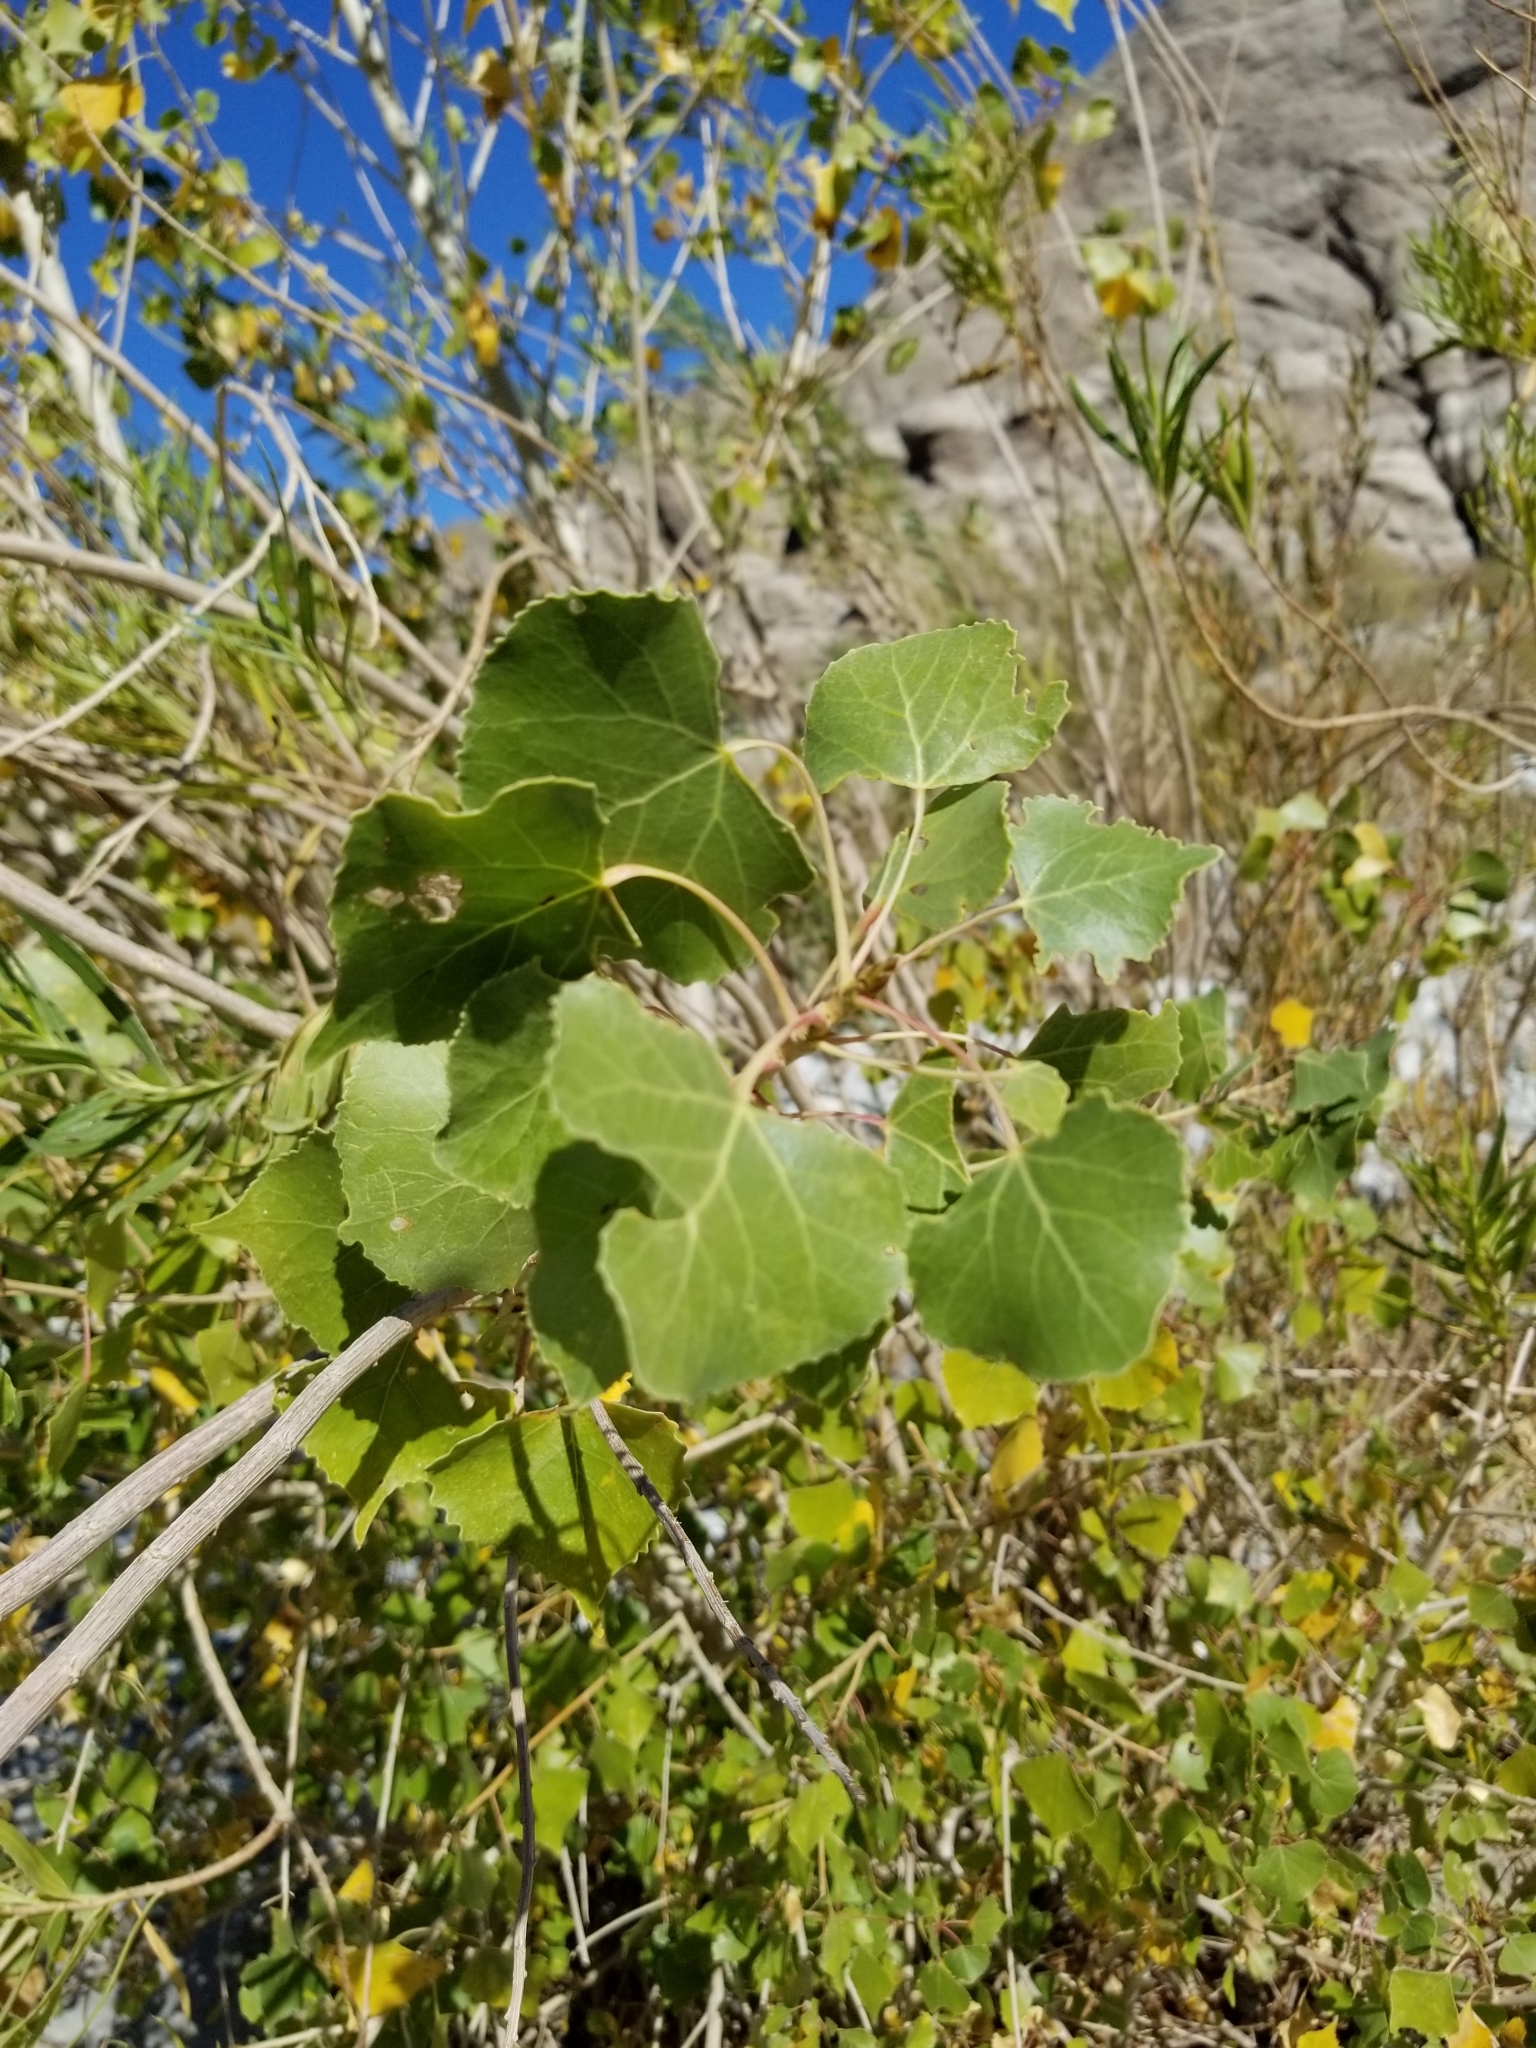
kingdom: Plantae
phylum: Tracheophyta
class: Magnoliopsida
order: Malpighiales
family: Salicaceae
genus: Populus
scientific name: Populus fremontii
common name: Fremont's cottonwood
